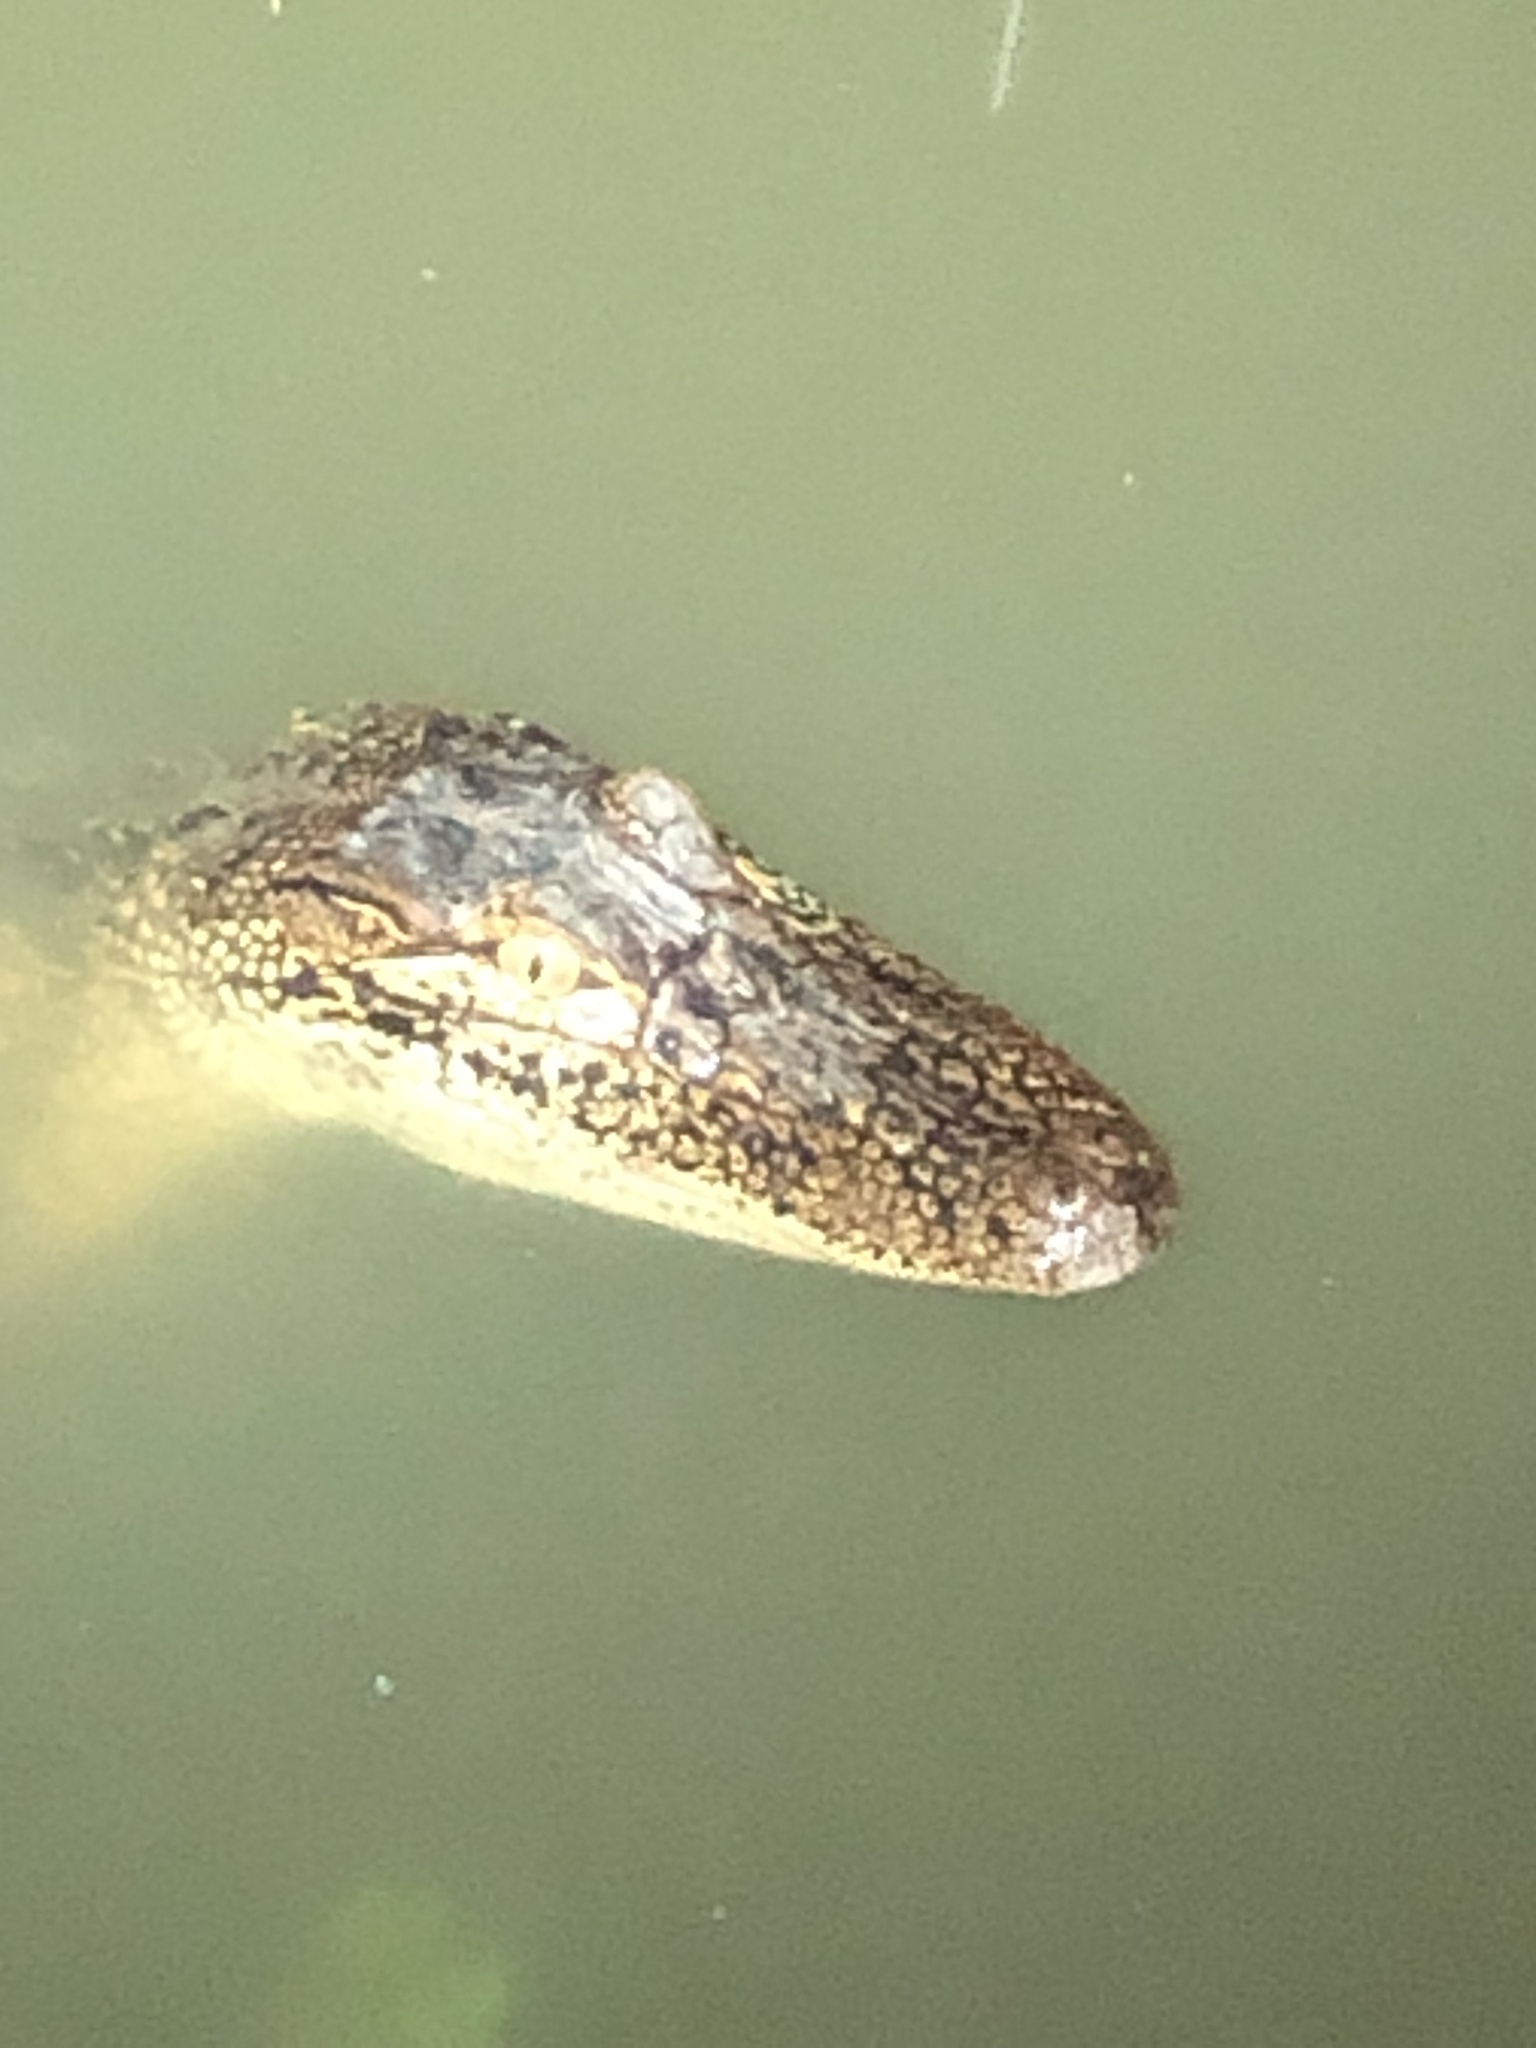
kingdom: Animalia
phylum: Chordata
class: Crocodylia
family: Alligatoridae
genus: Alligator
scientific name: Alligator mississippiensis
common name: American alligator
